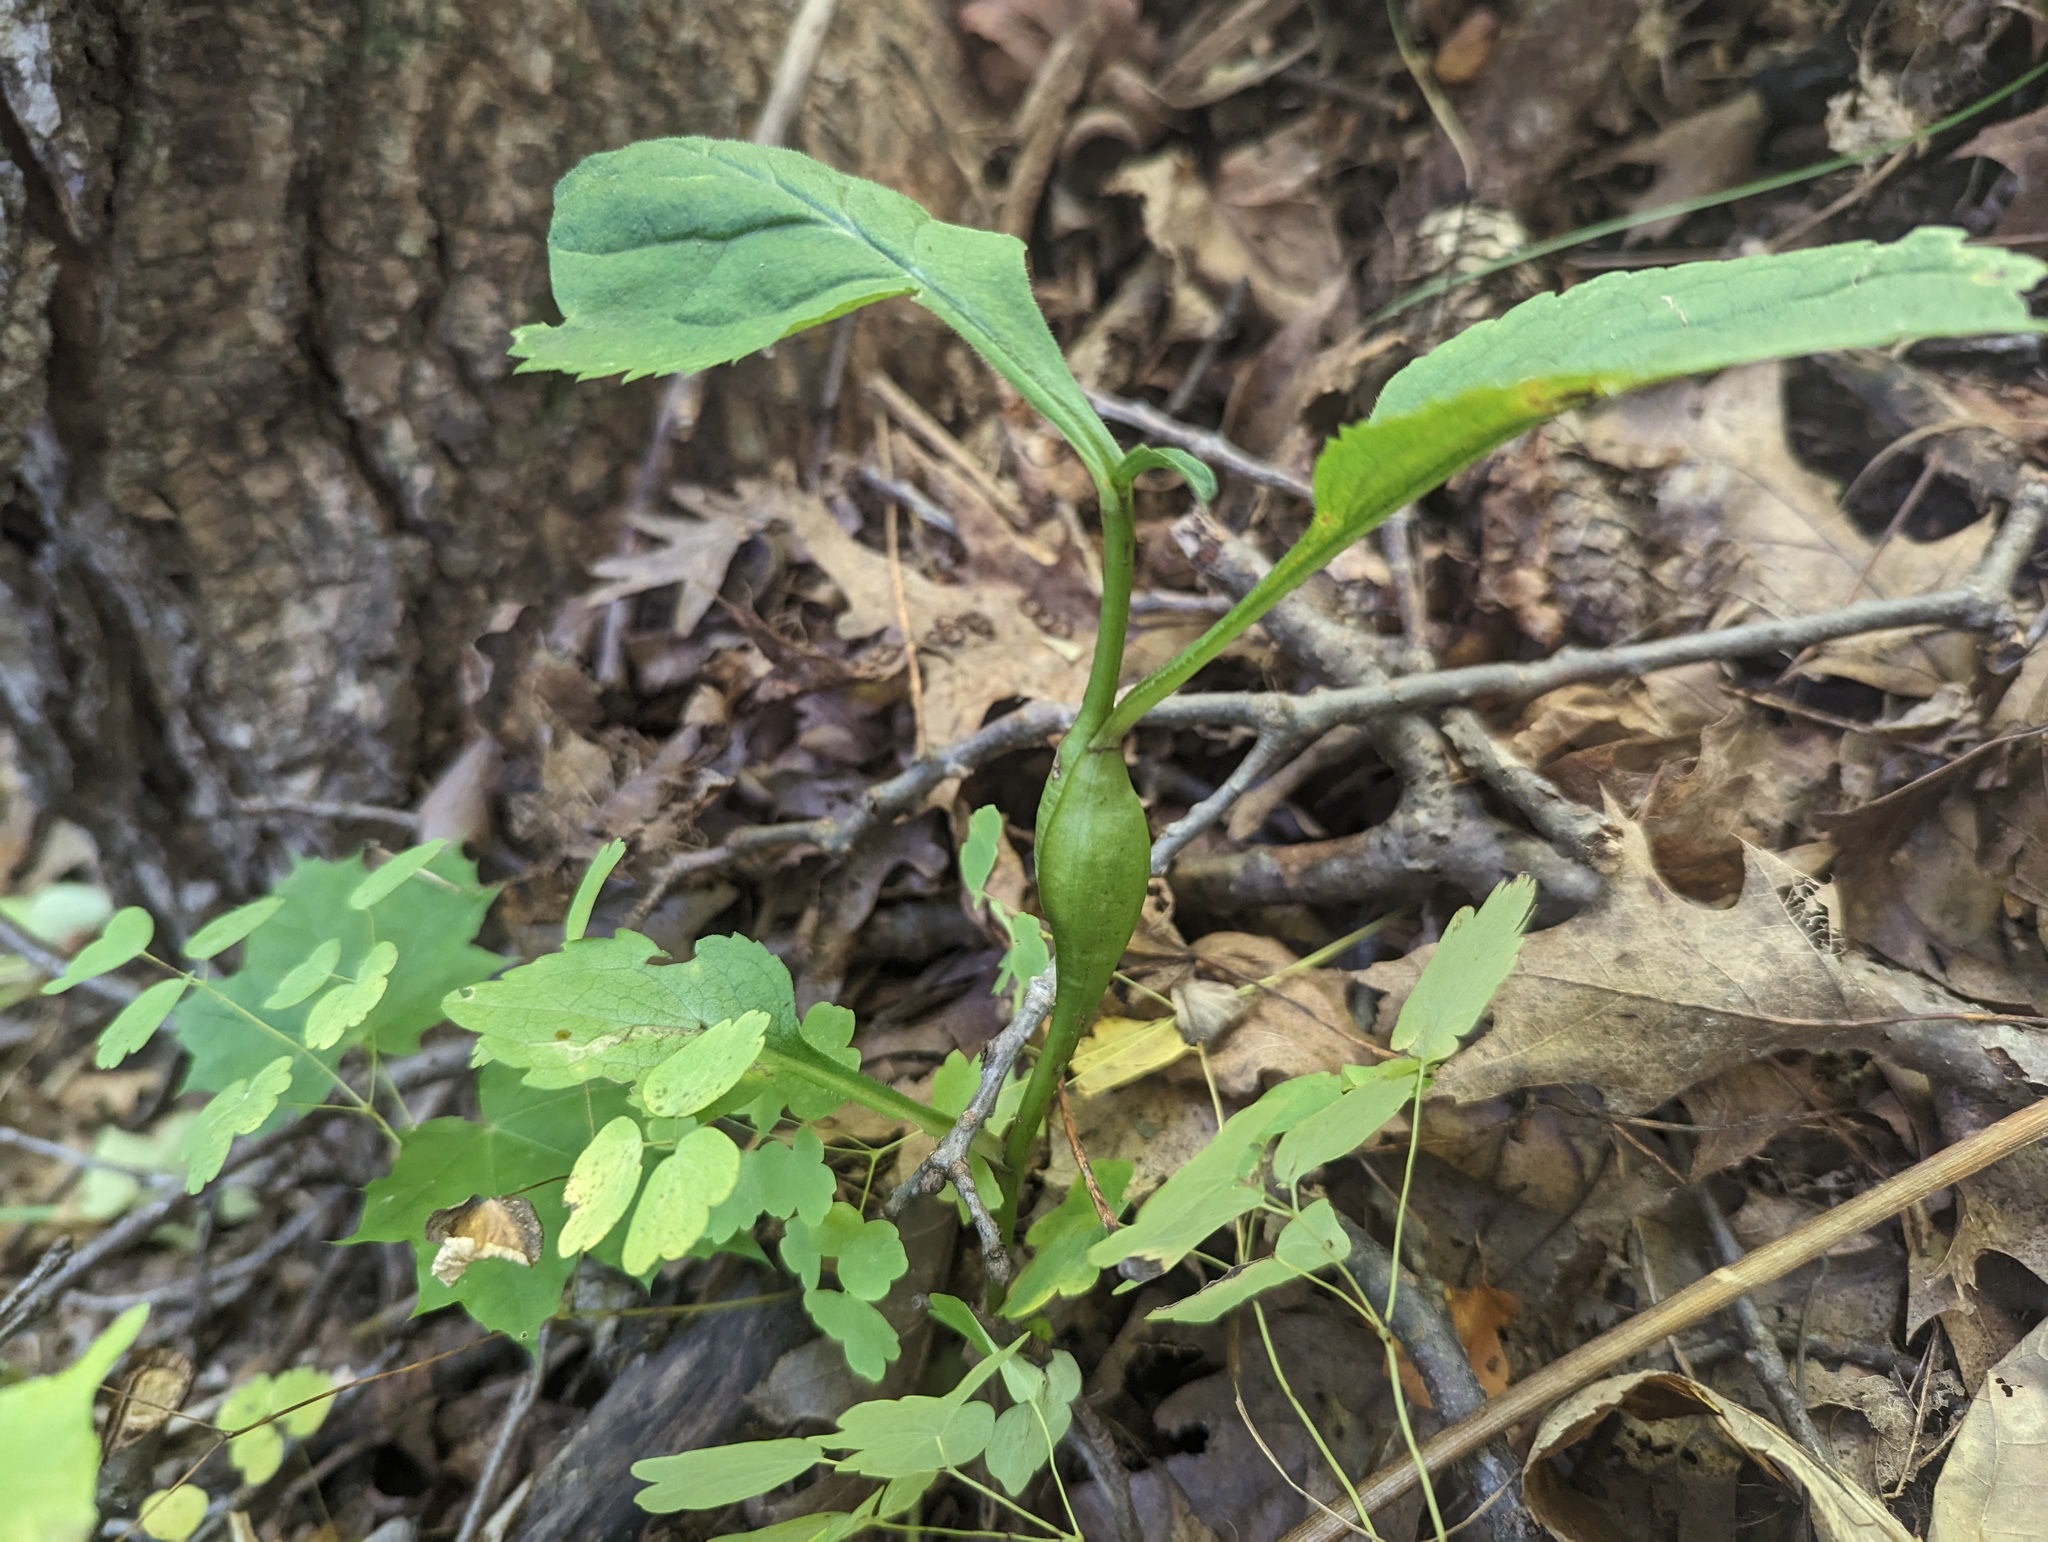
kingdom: Animalia
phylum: Arthropoda
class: Insecta
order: Lepidoptera
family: Gelechiidae
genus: Gnorimoschema
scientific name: Gnorimoschema gallaeasterella
